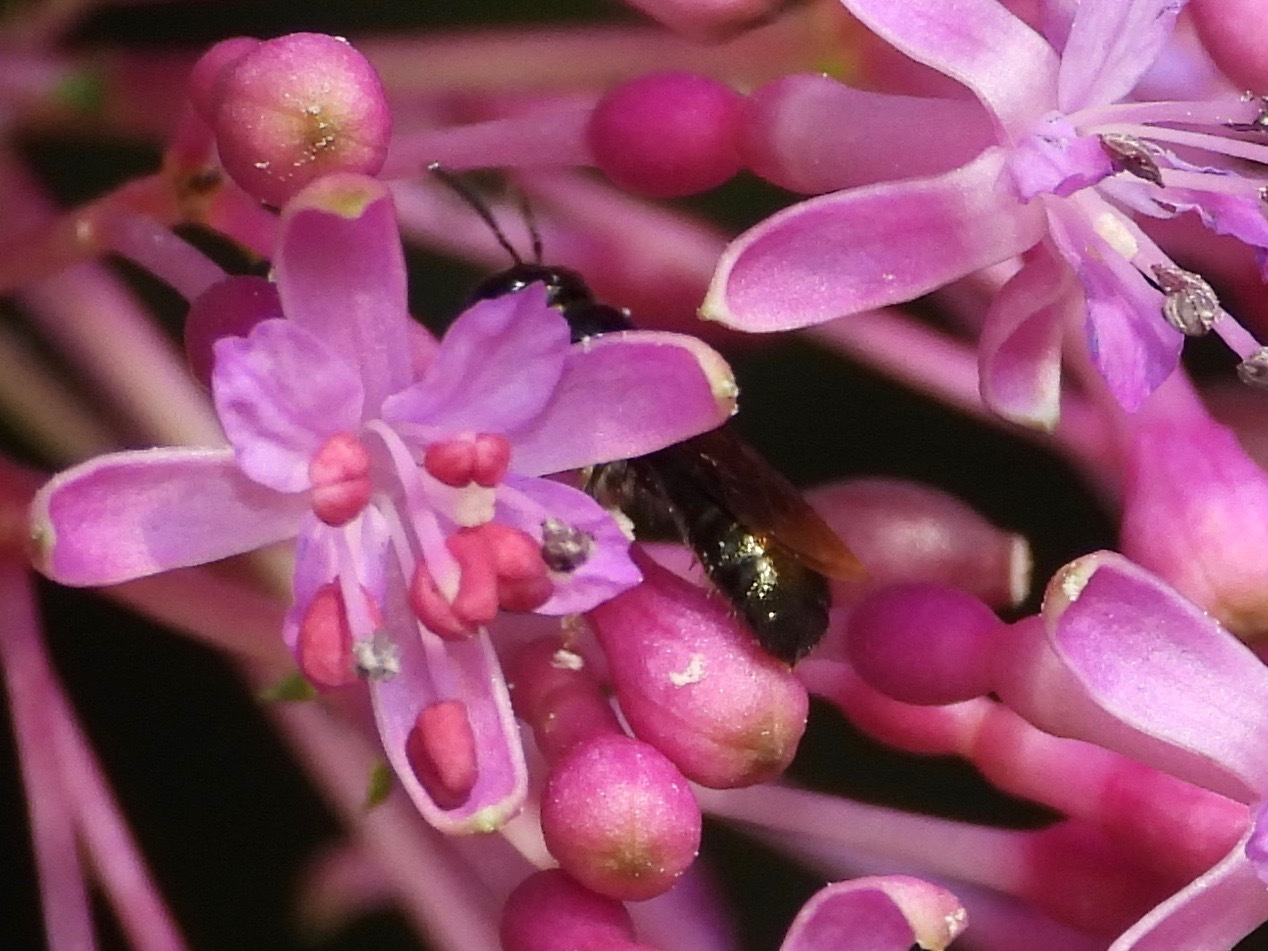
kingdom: Animalia
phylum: Arthropoda
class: Insecta
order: Hymenoptera
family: Apidae
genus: Ceratina
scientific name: Ceratina
